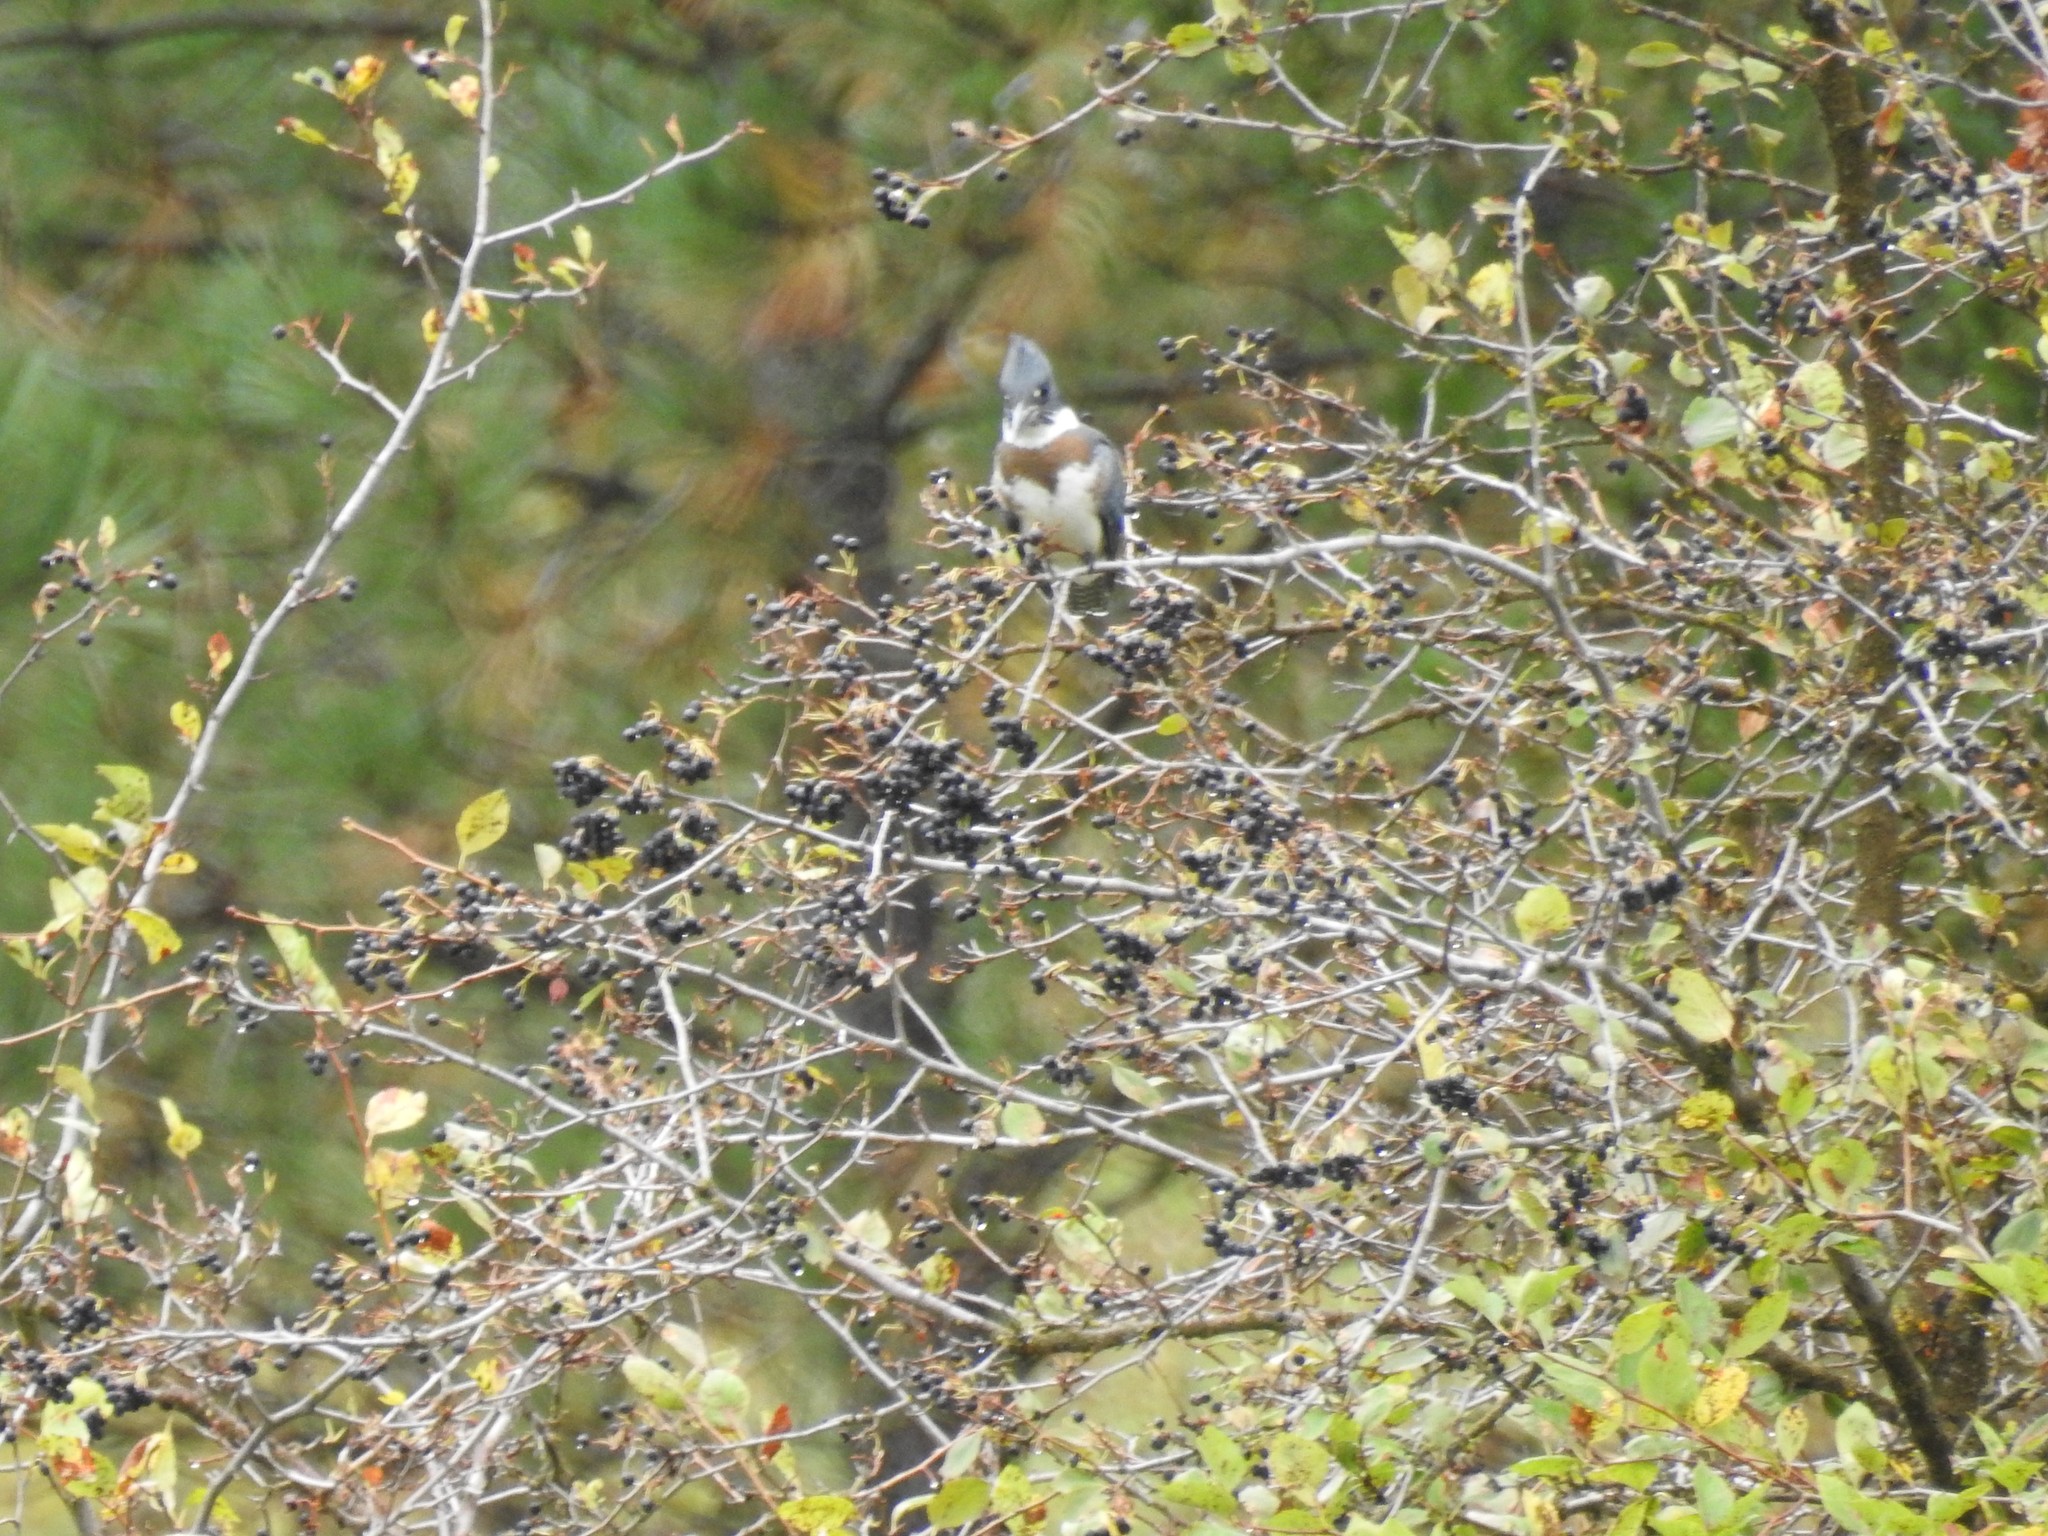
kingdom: Animalia
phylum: Chordata
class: Aves
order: Coraciiformes
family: Alcedinidae
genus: Megaceryle
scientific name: Megaceryle alcyon
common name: Belted kingfisher
